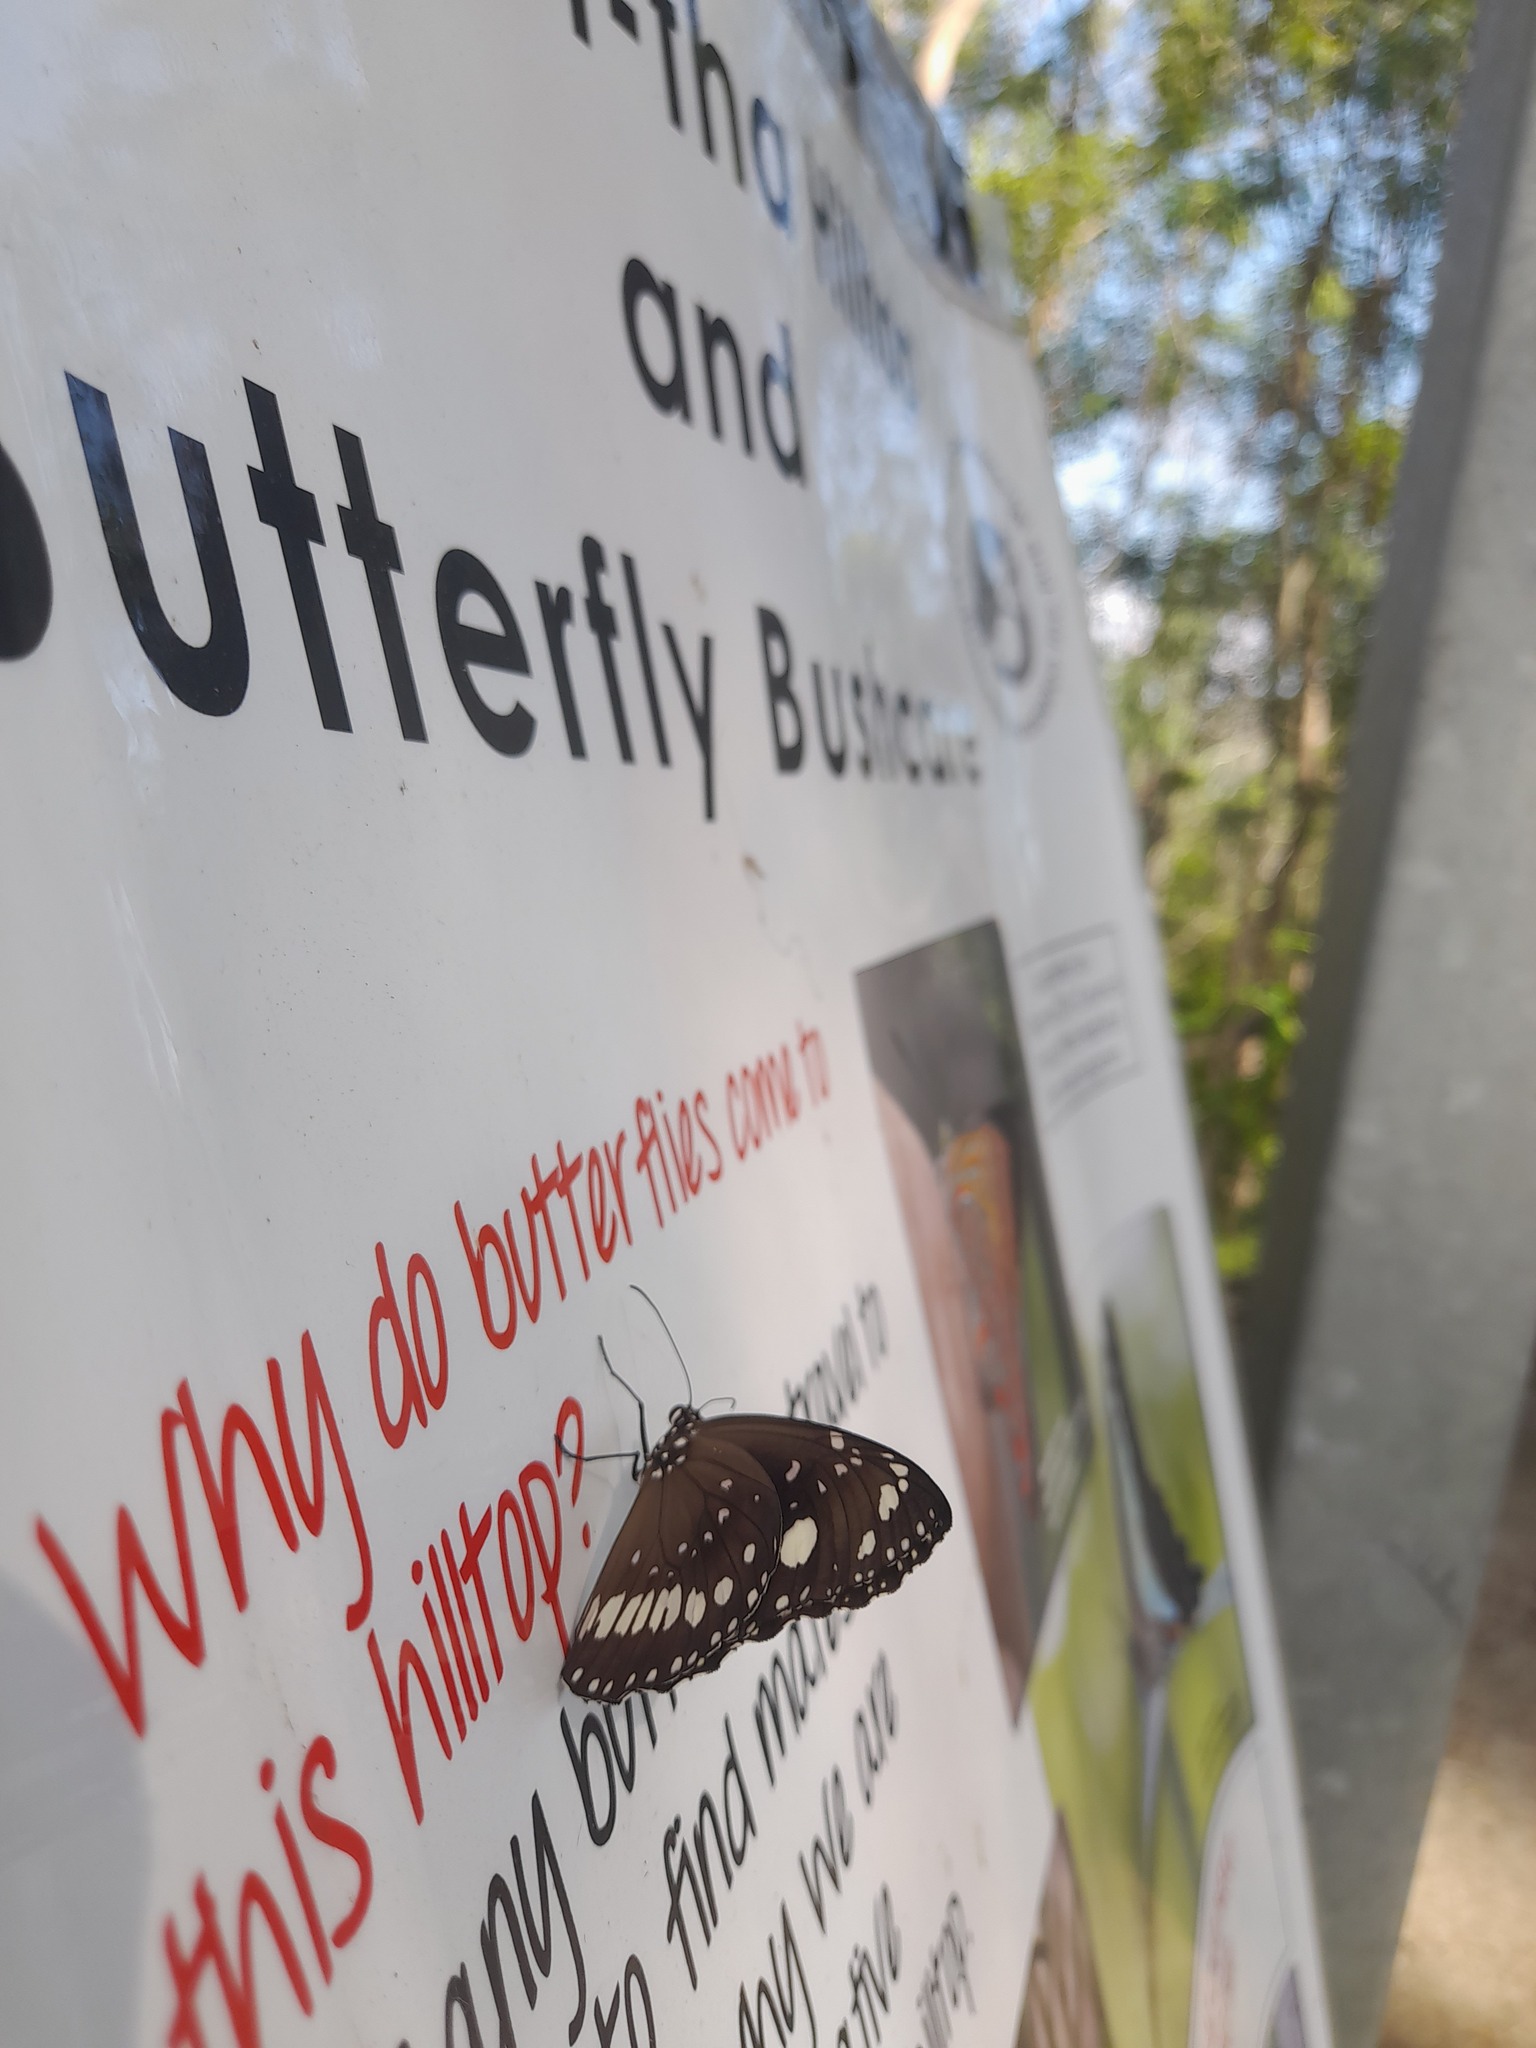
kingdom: Animalia
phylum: Arthropoda
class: Insecta
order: Lepidoptera
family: Nymphalidae
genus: Euploea
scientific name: Euploea core
